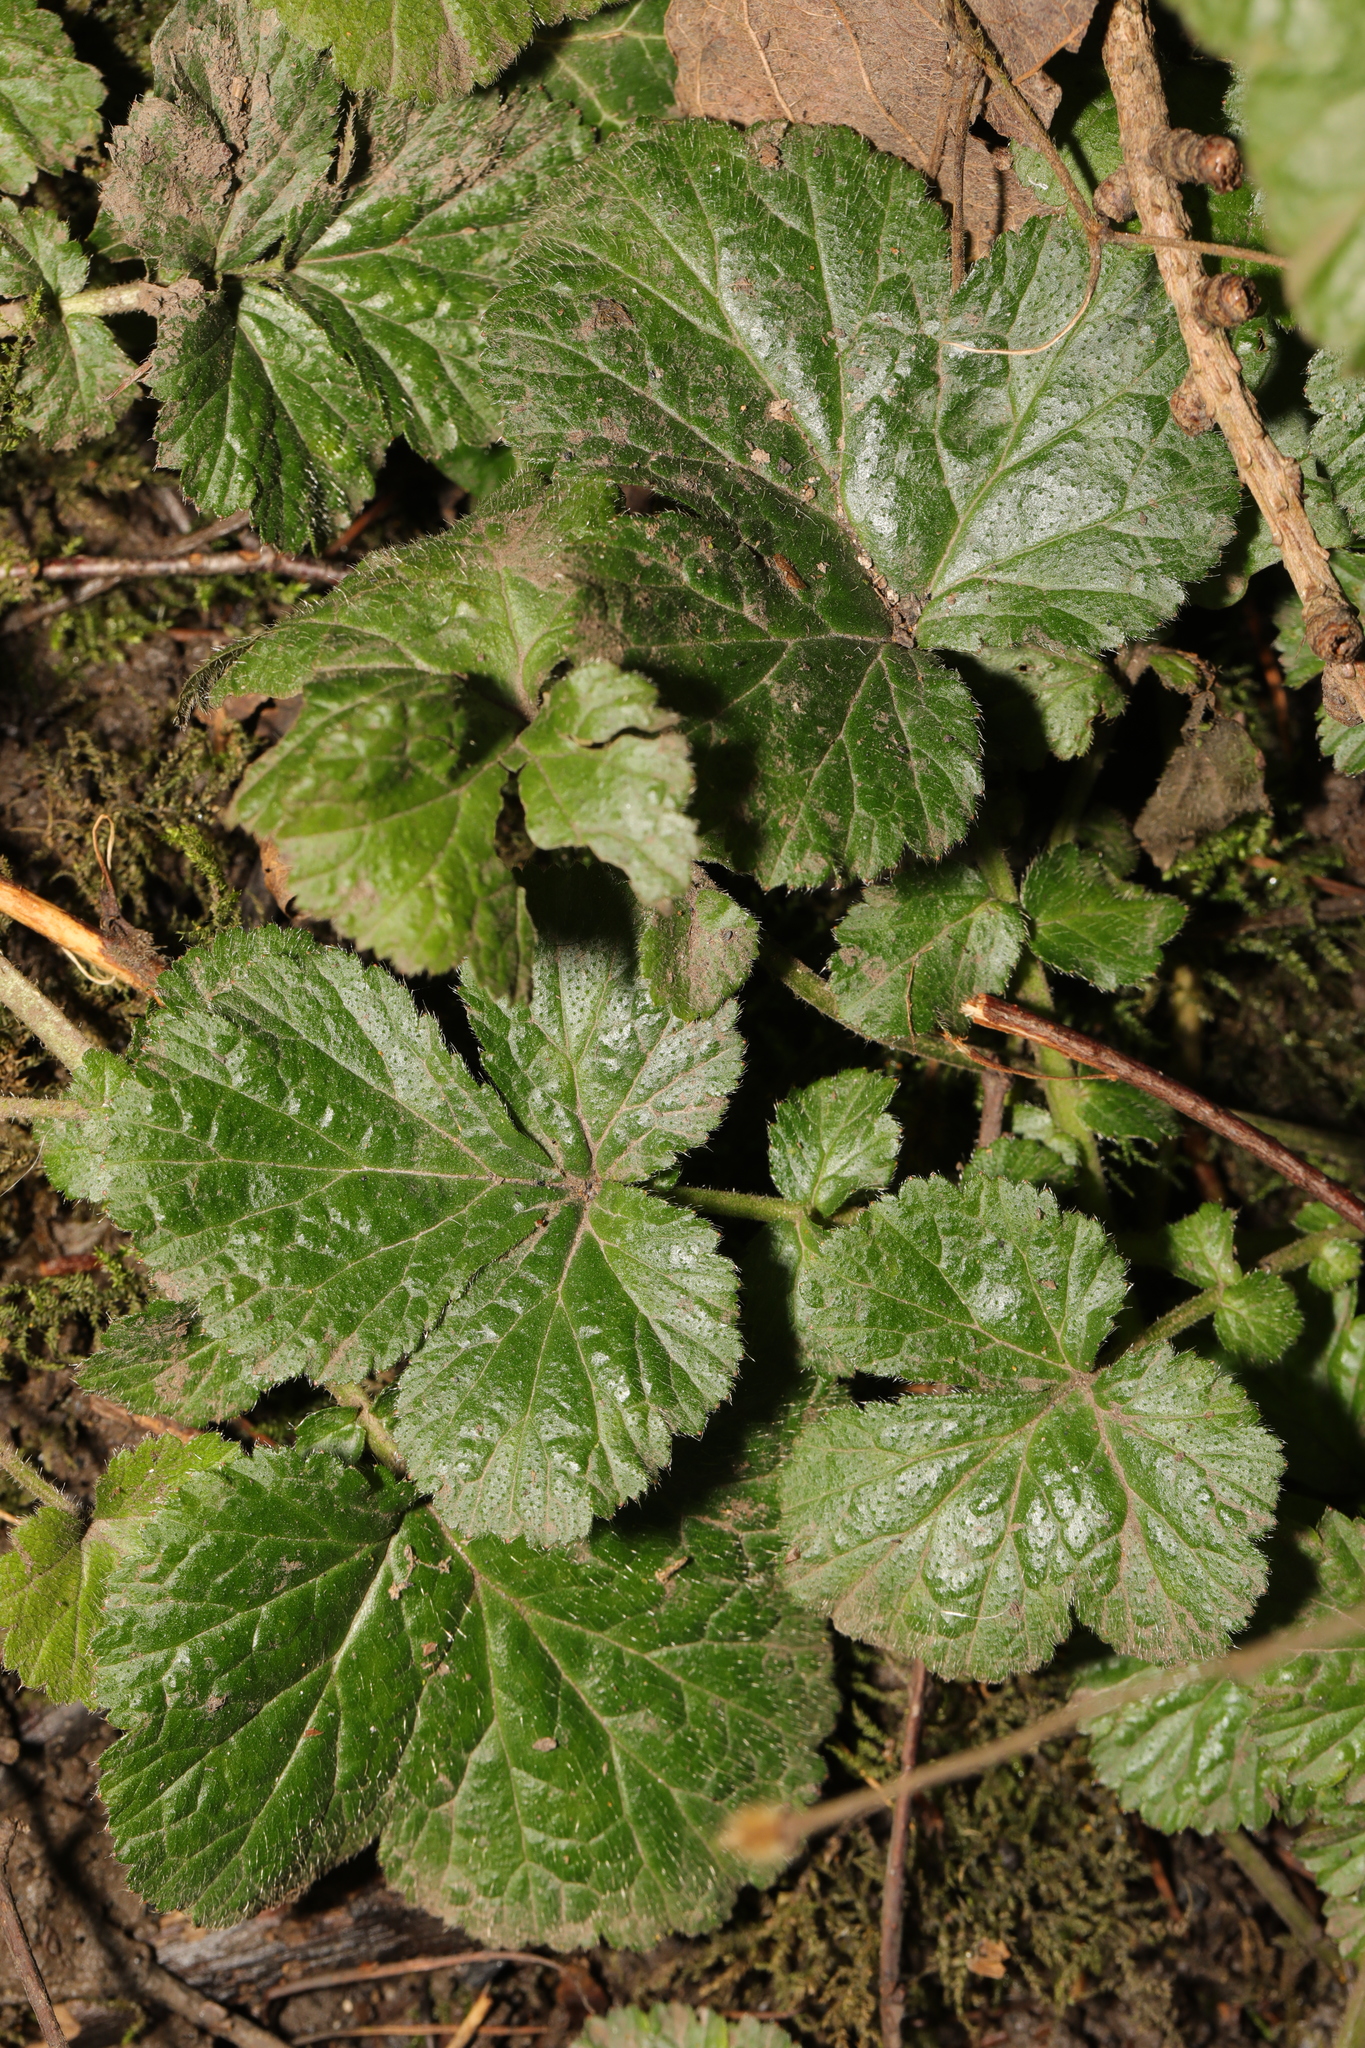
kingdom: Plantae
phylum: Tracheophyta
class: Magnoliopsida
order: Rosales
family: Rosaceae
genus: Geum
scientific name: Geum urbanum
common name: Wood avens
